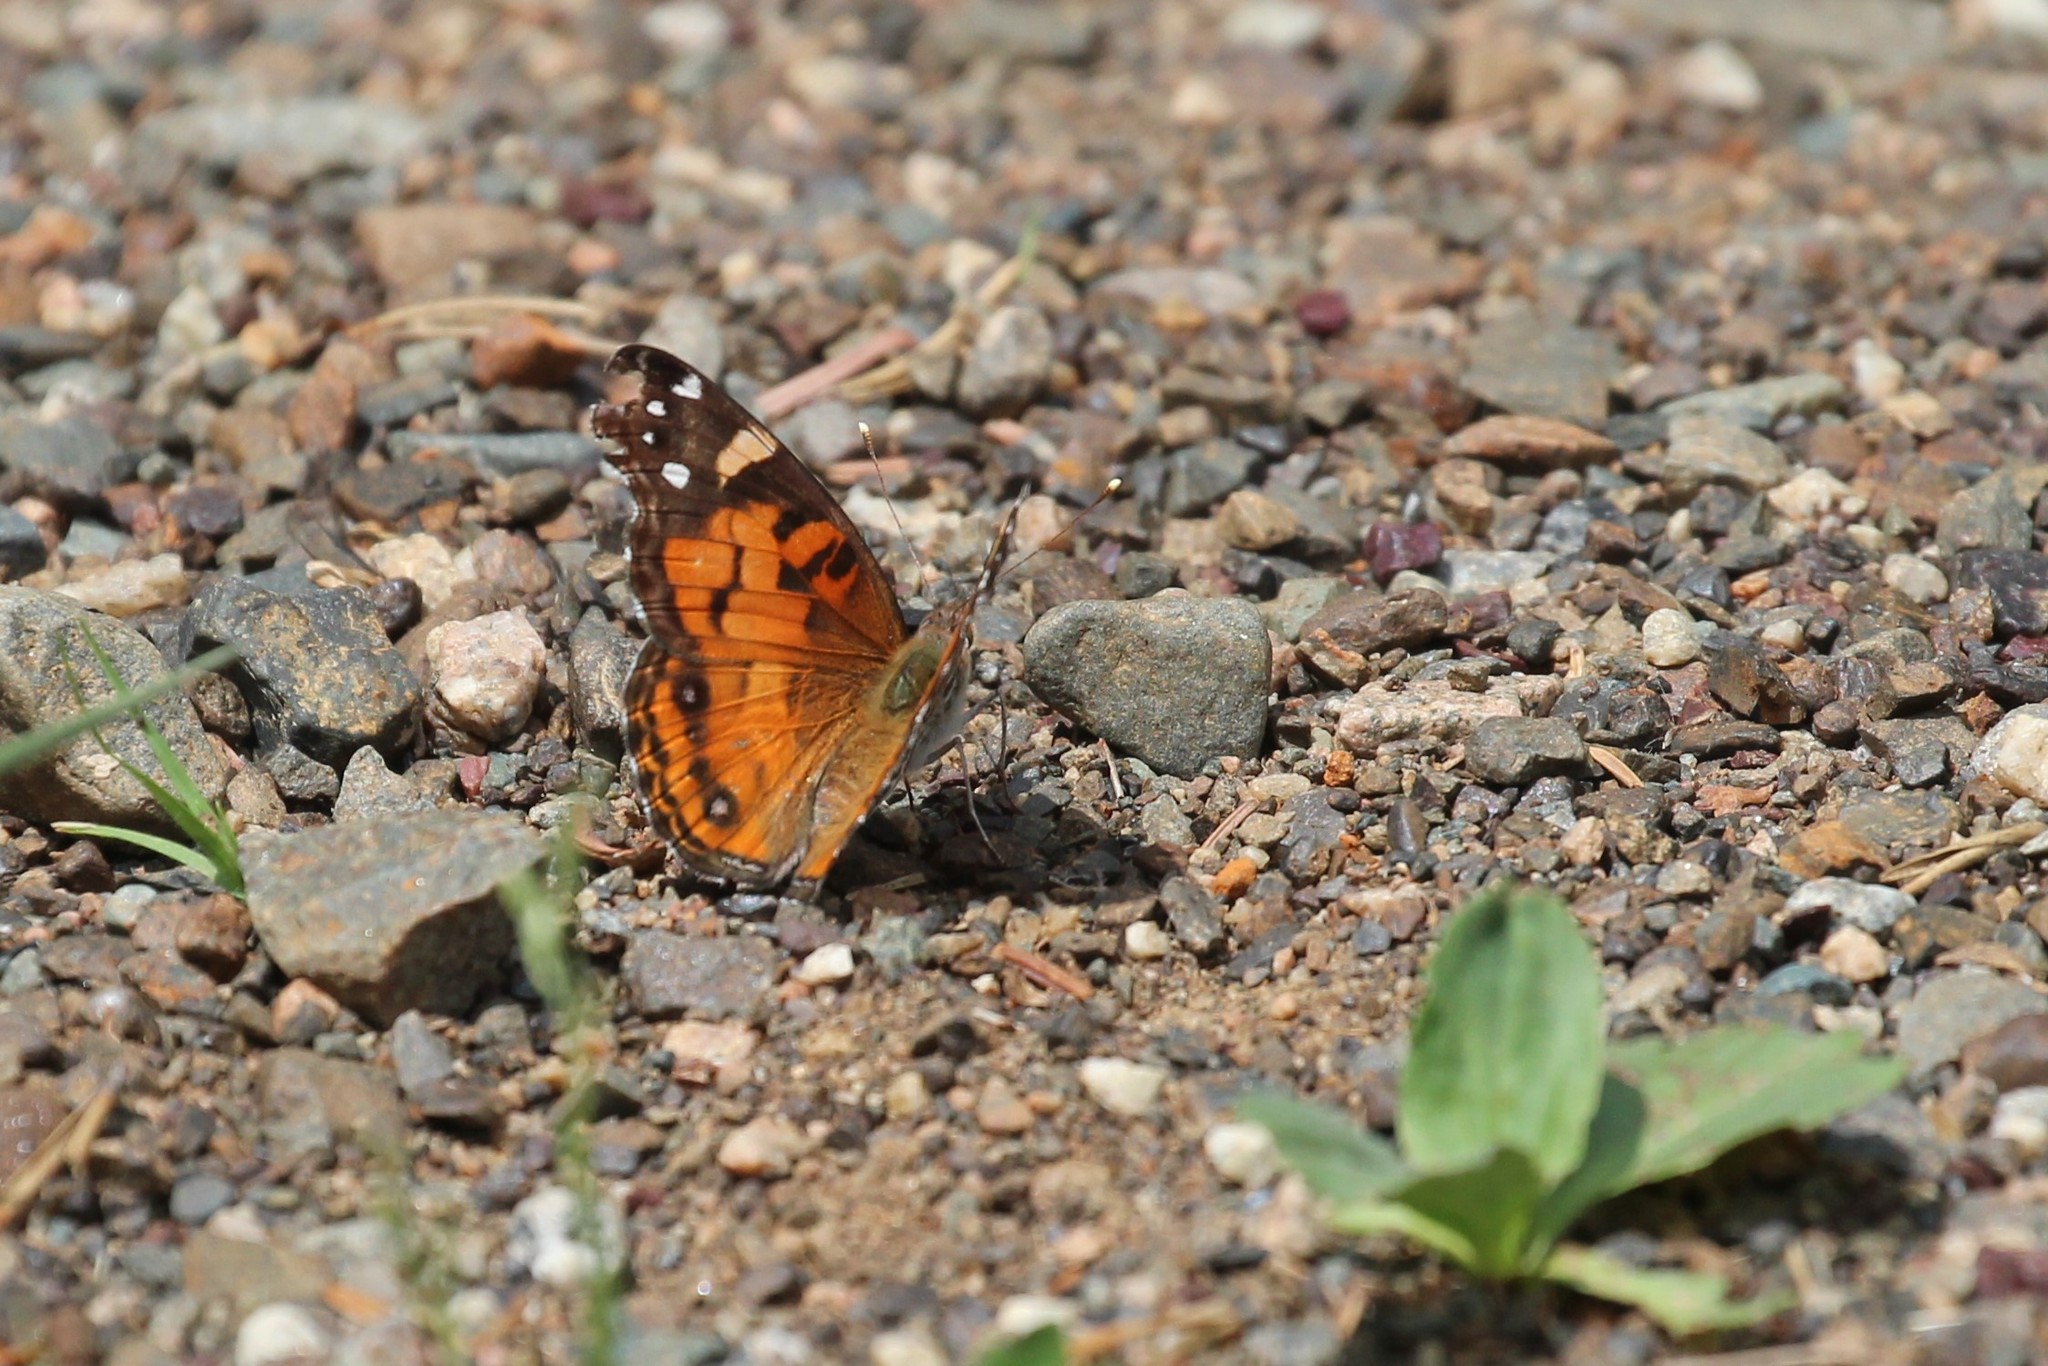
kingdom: Animalia
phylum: Arthropoda
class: Insecta
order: Lepidoptera
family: Nymphalidae
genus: Vanessa
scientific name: Vanessa virginiensis
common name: American lady
